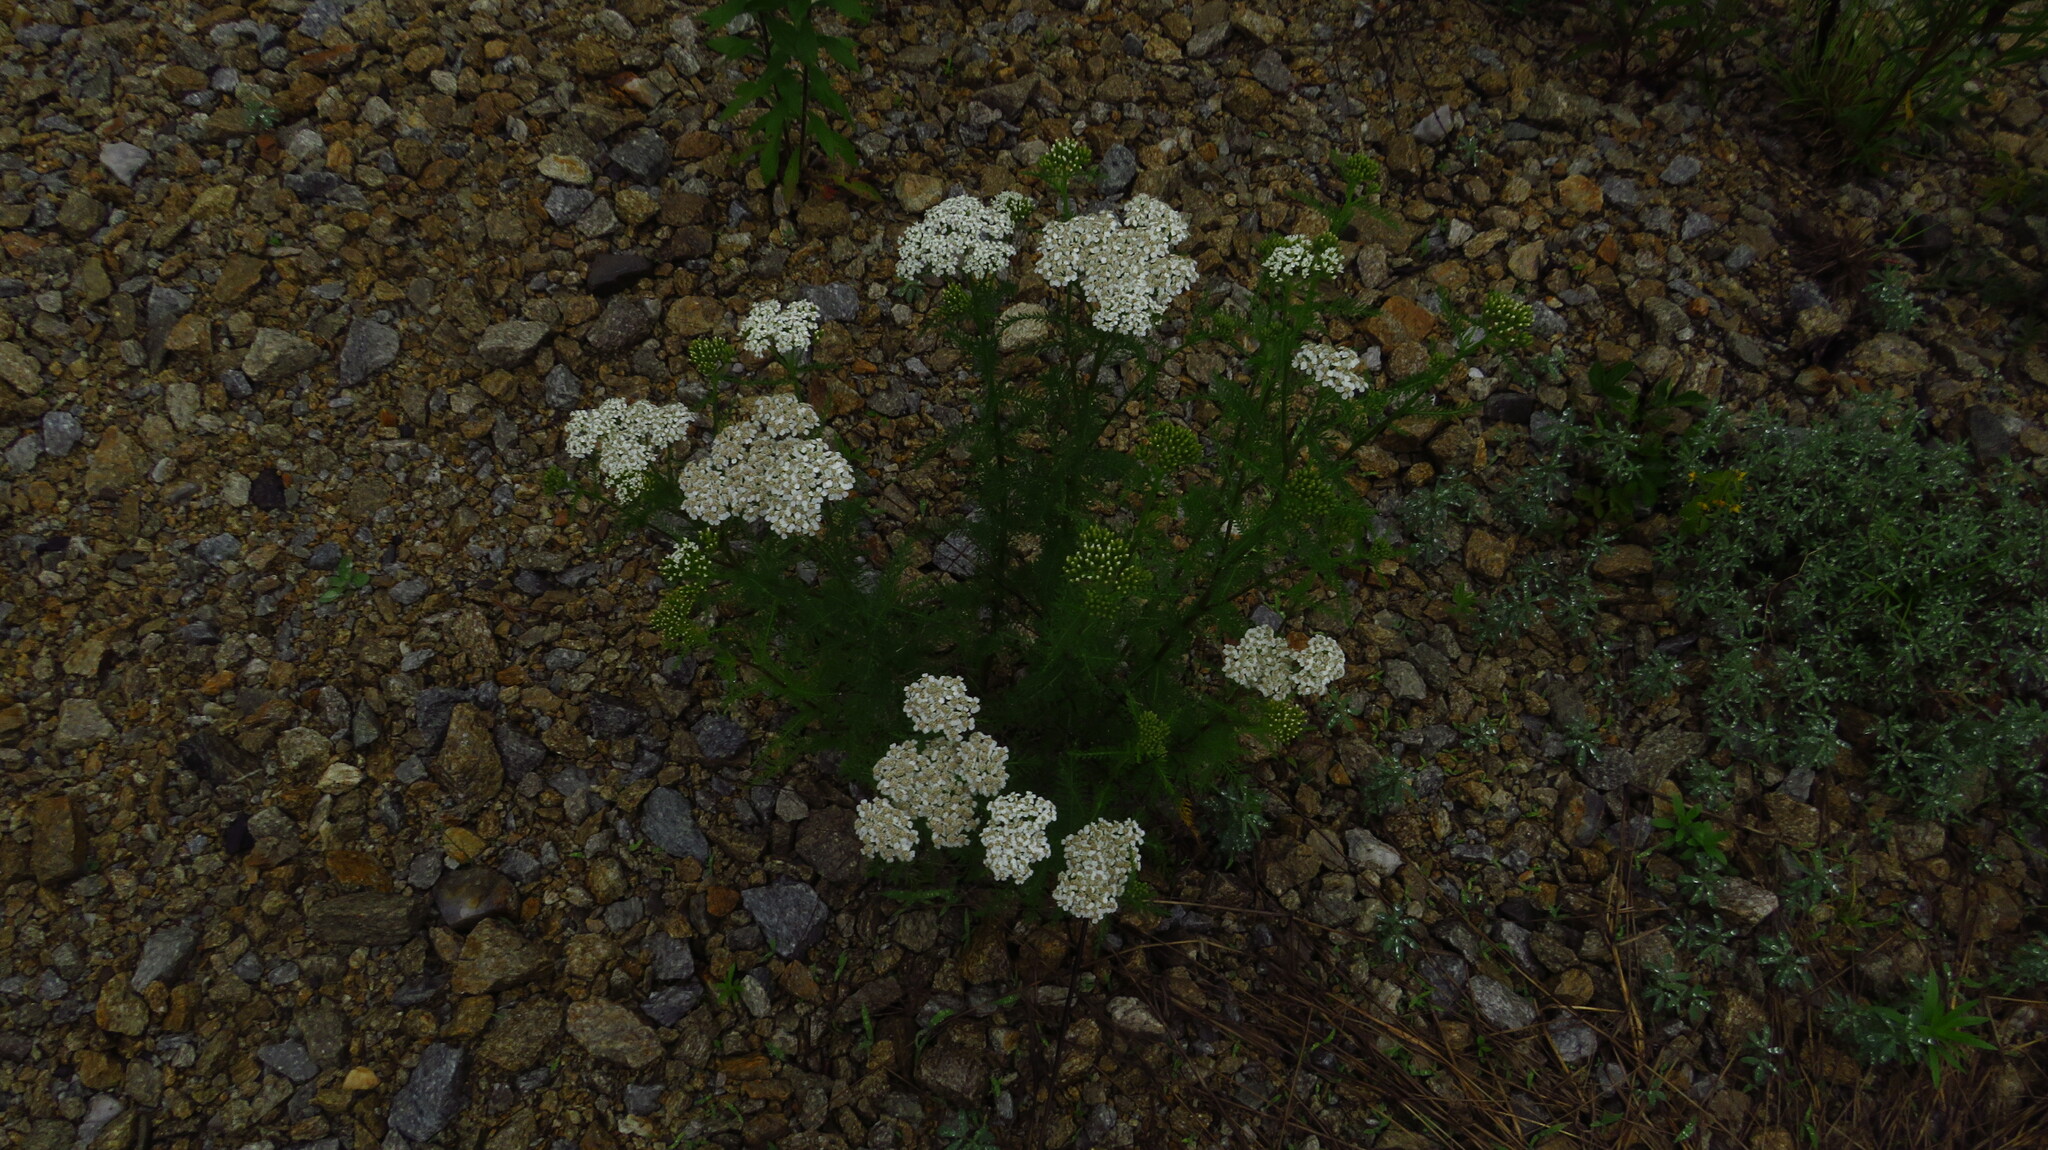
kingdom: Plantae
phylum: Tracheophyta
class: Magnoliopsida
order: Asterales
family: Asteraceae
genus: Achillea
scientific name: Achillea millefolium
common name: Yarrow
